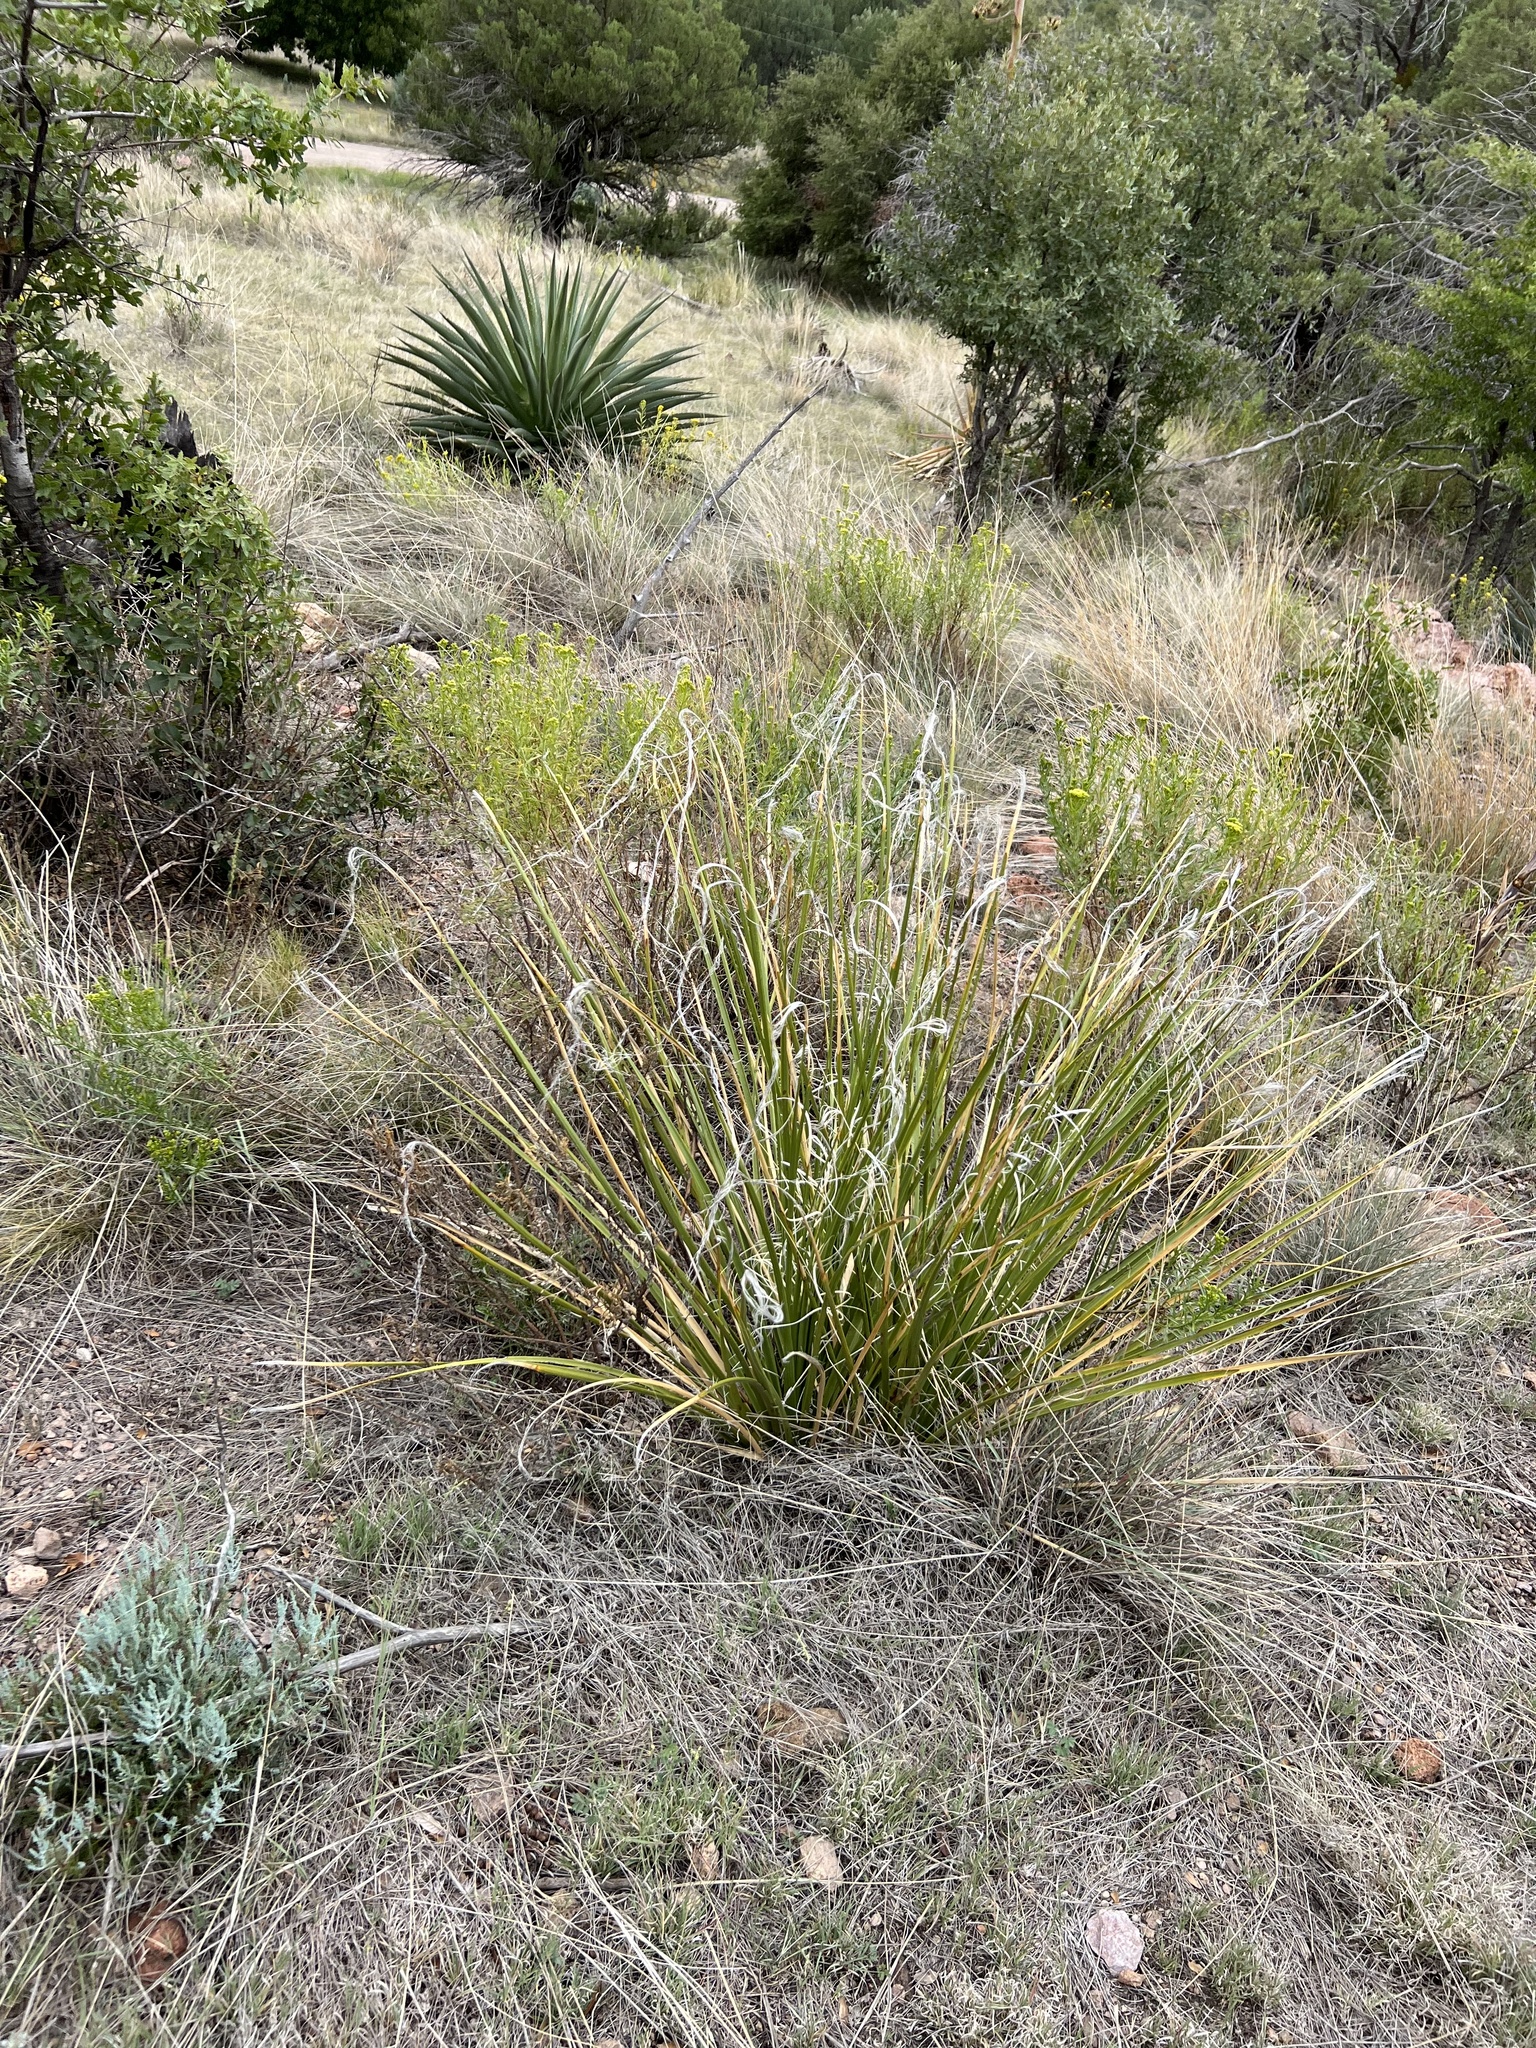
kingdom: Plantae
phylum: Tracheophyta
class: Liliopsida
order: Asparagales
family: Asparagaceae
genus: Nolina
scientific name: Nolina microcarpa
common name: Bear-grass
